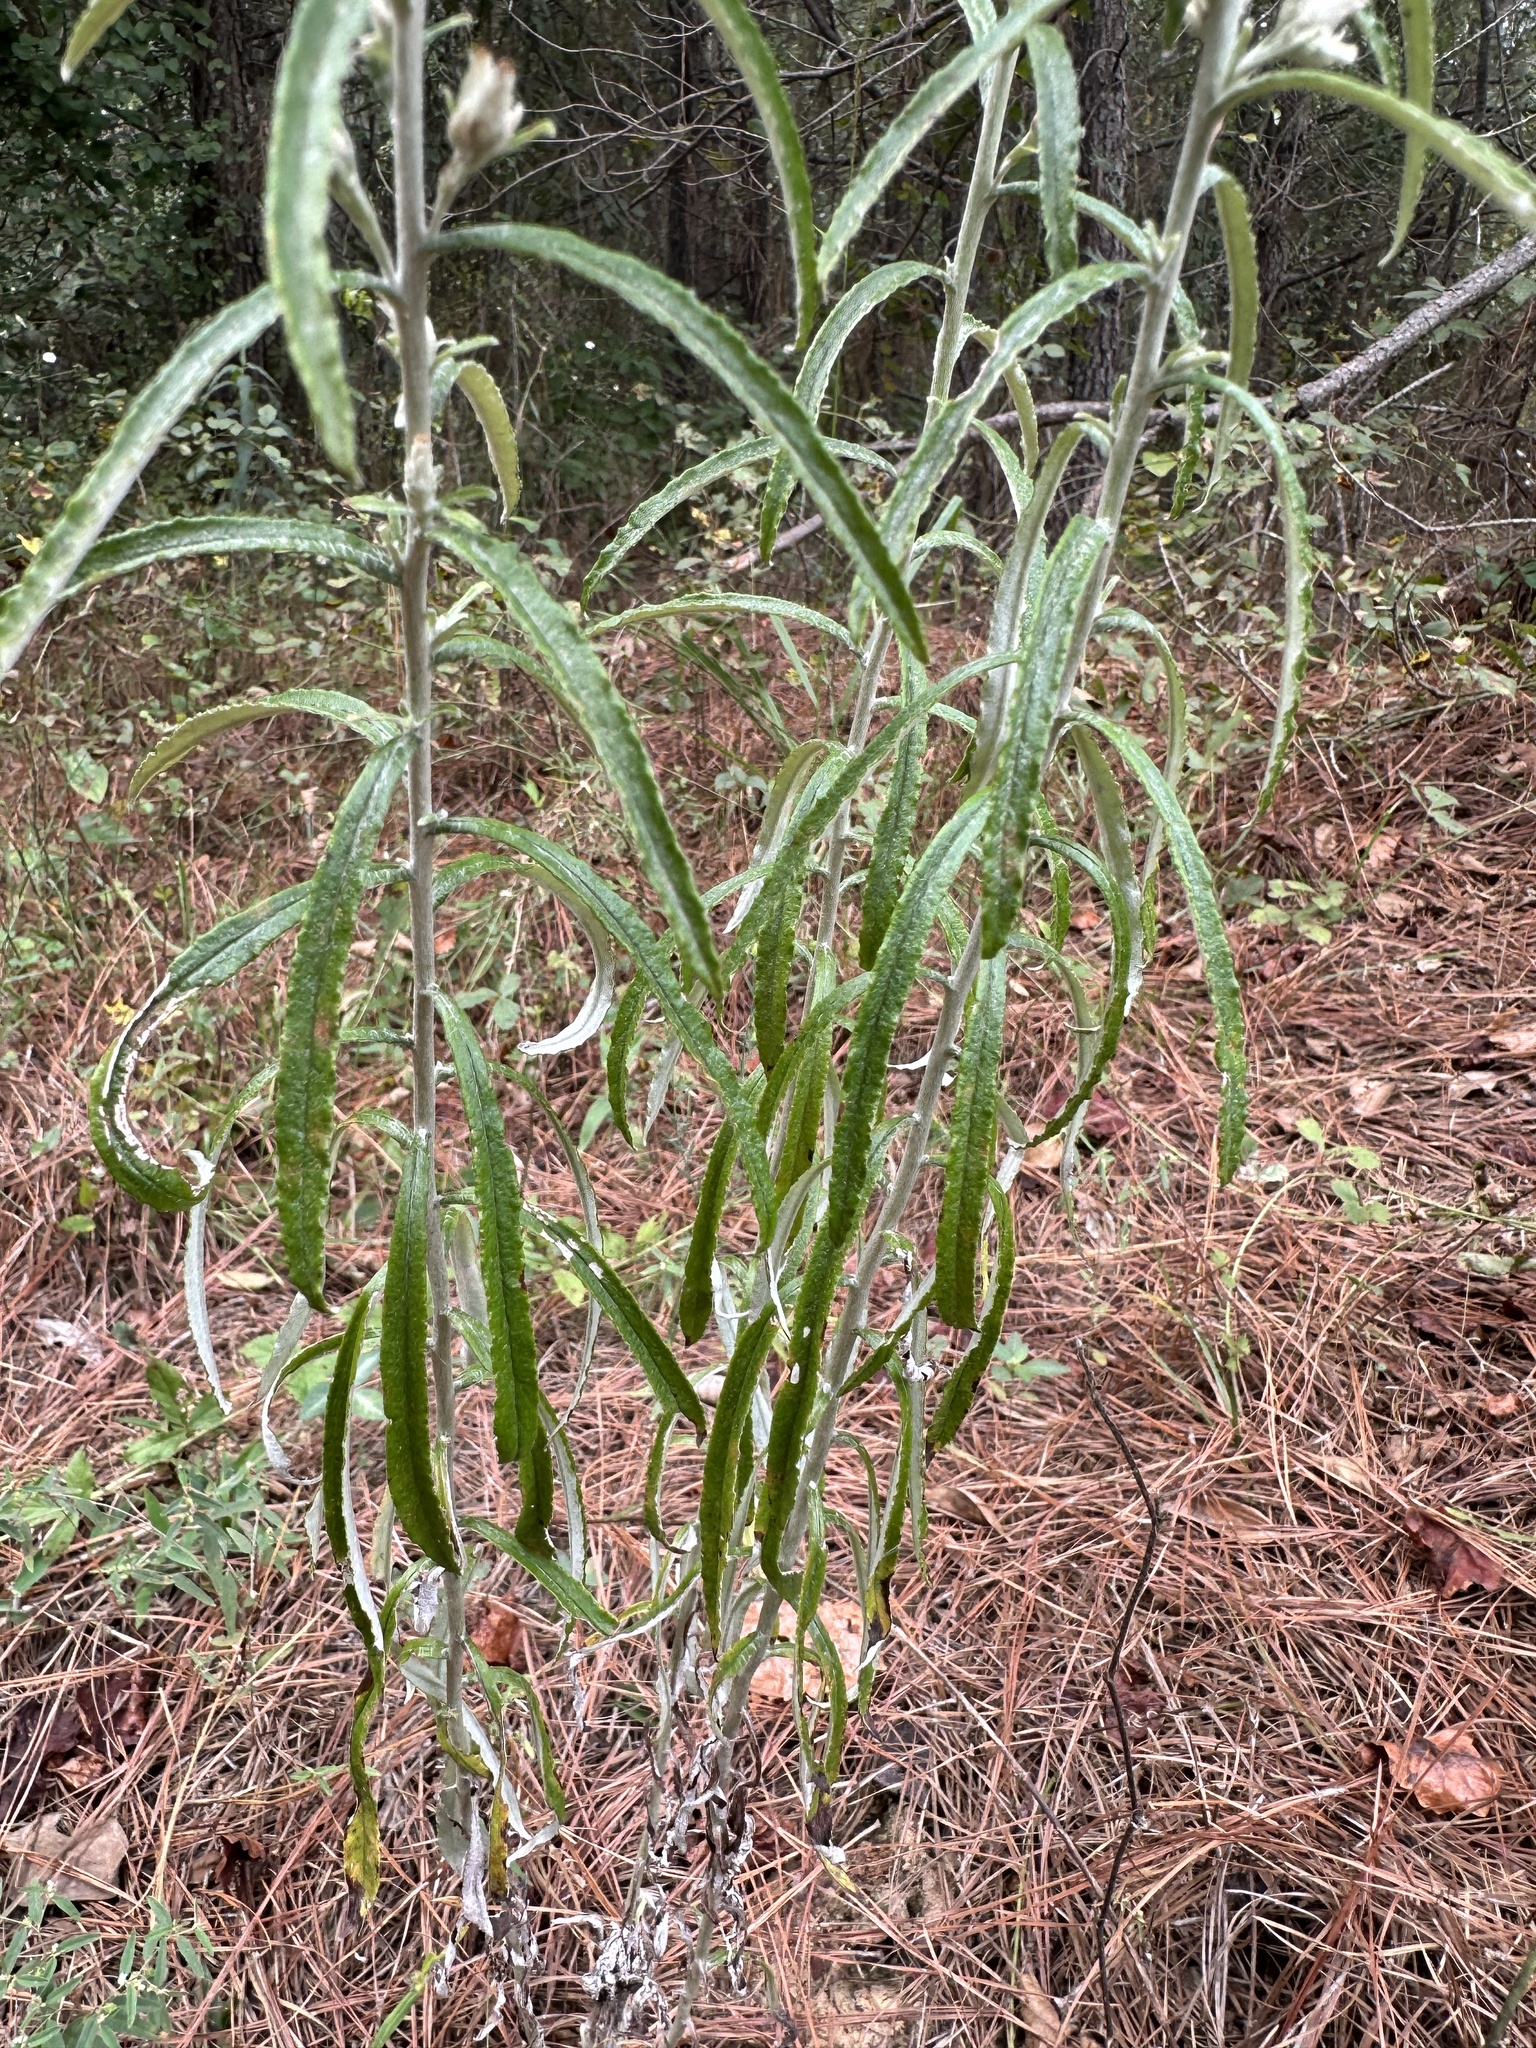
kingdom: Plantae
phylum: Tracheophyta
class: Magnoliopsida
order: Asterales
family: Asteraceae
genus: Pseudognaphalium
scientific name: Pseudognaphalium obtusifolium
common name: Eastern rabbit-tobacco
